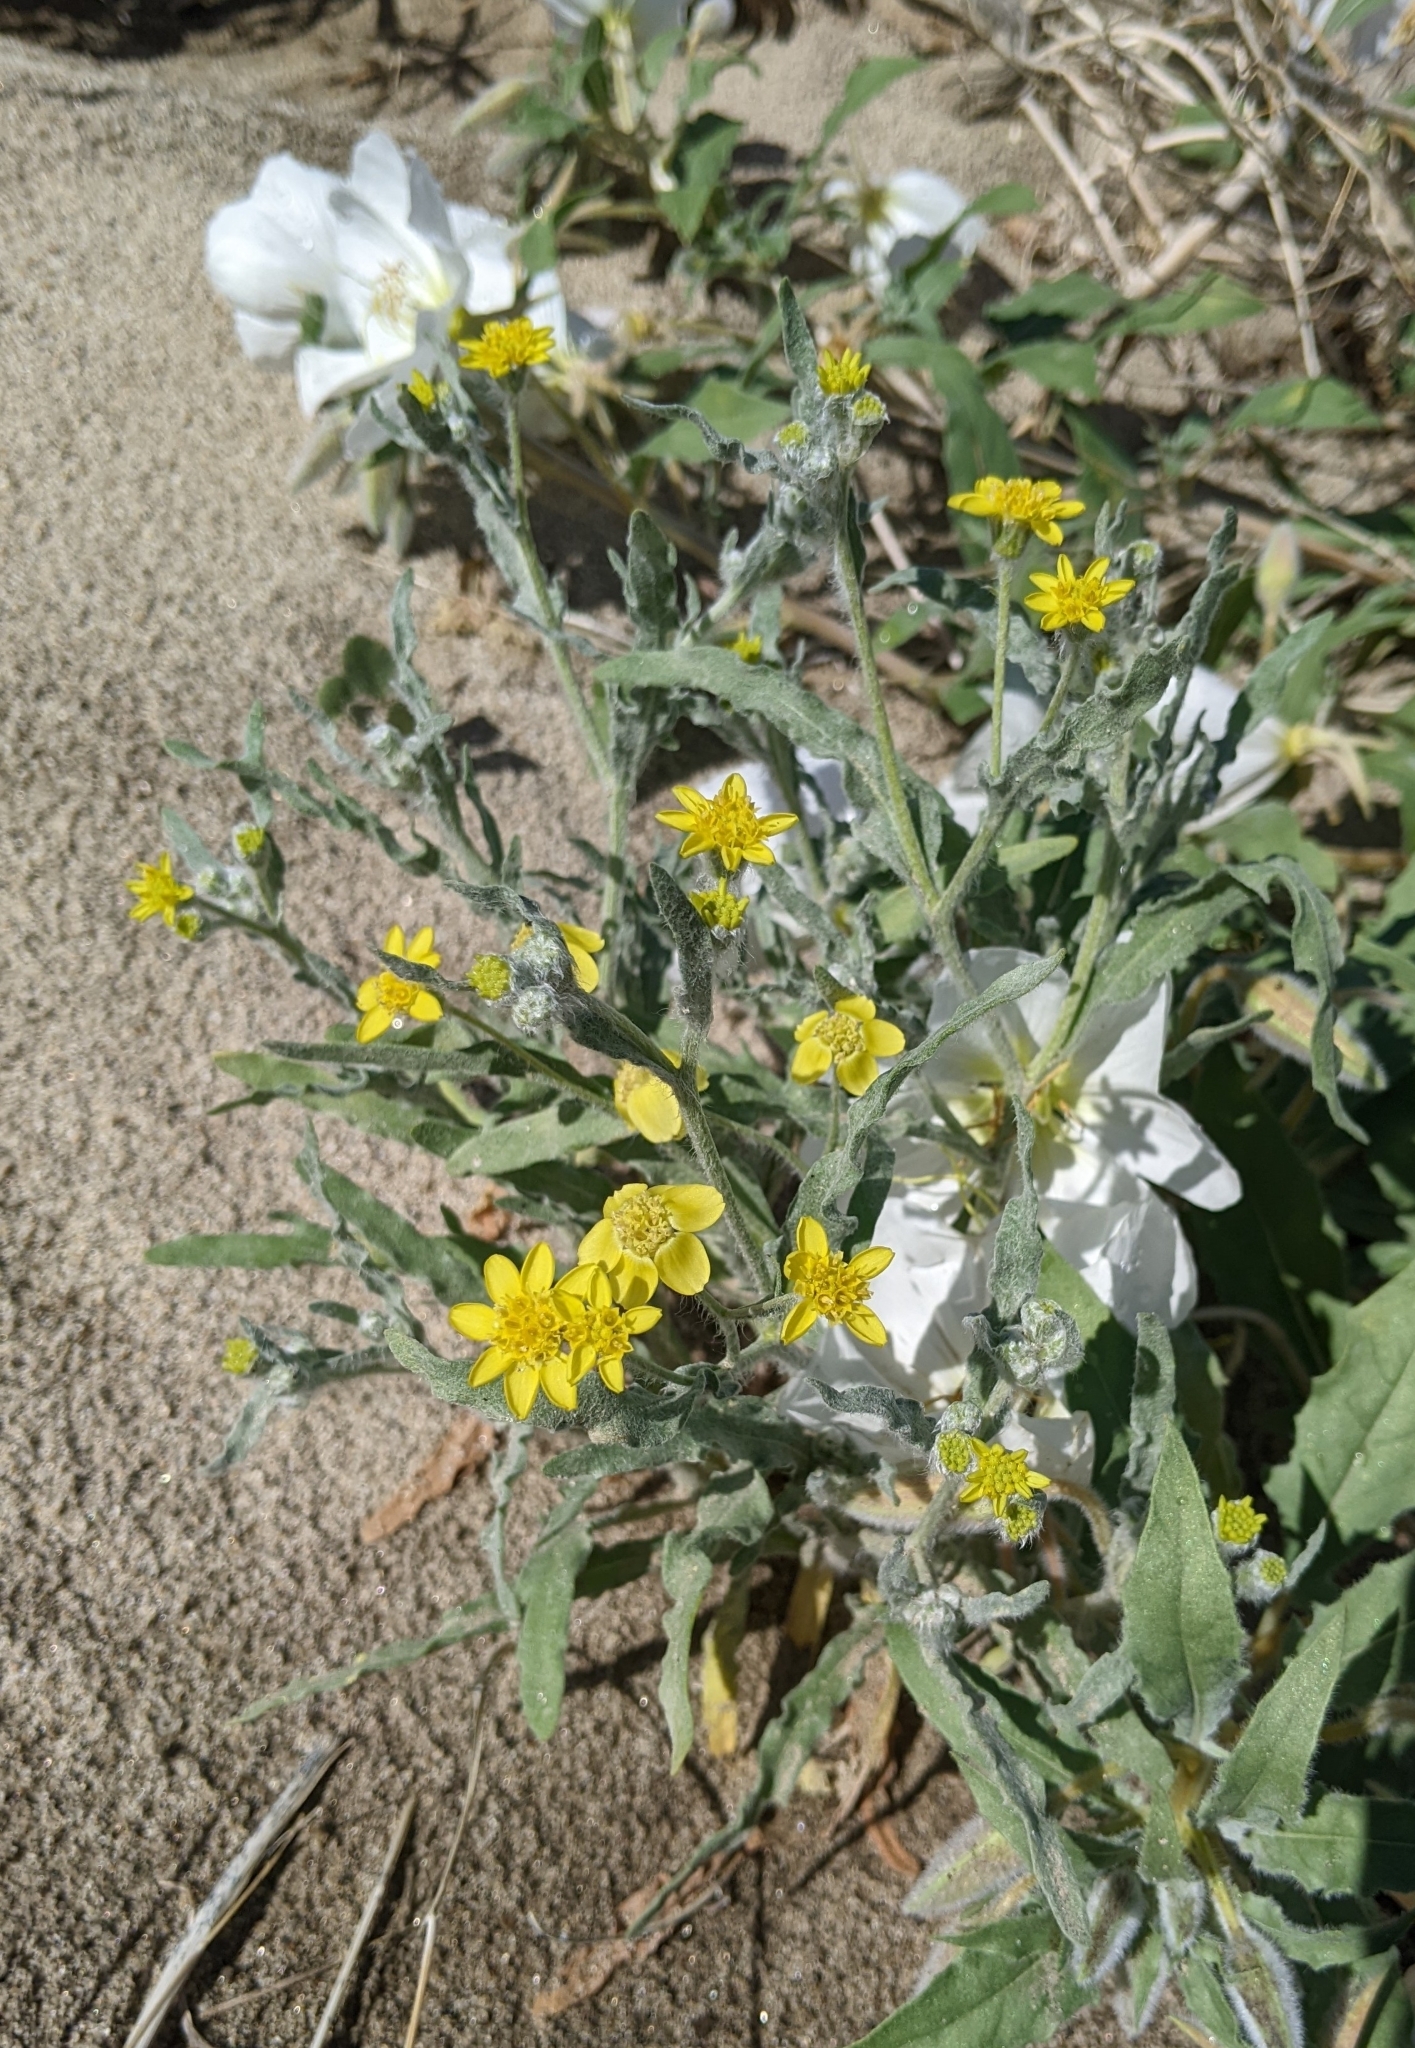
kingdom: Plantae
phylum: Tracheophyta
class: Magnoliopsida
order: Asterales
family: Asteraceae
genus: Baileya
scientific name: Baileya pauciradiata
